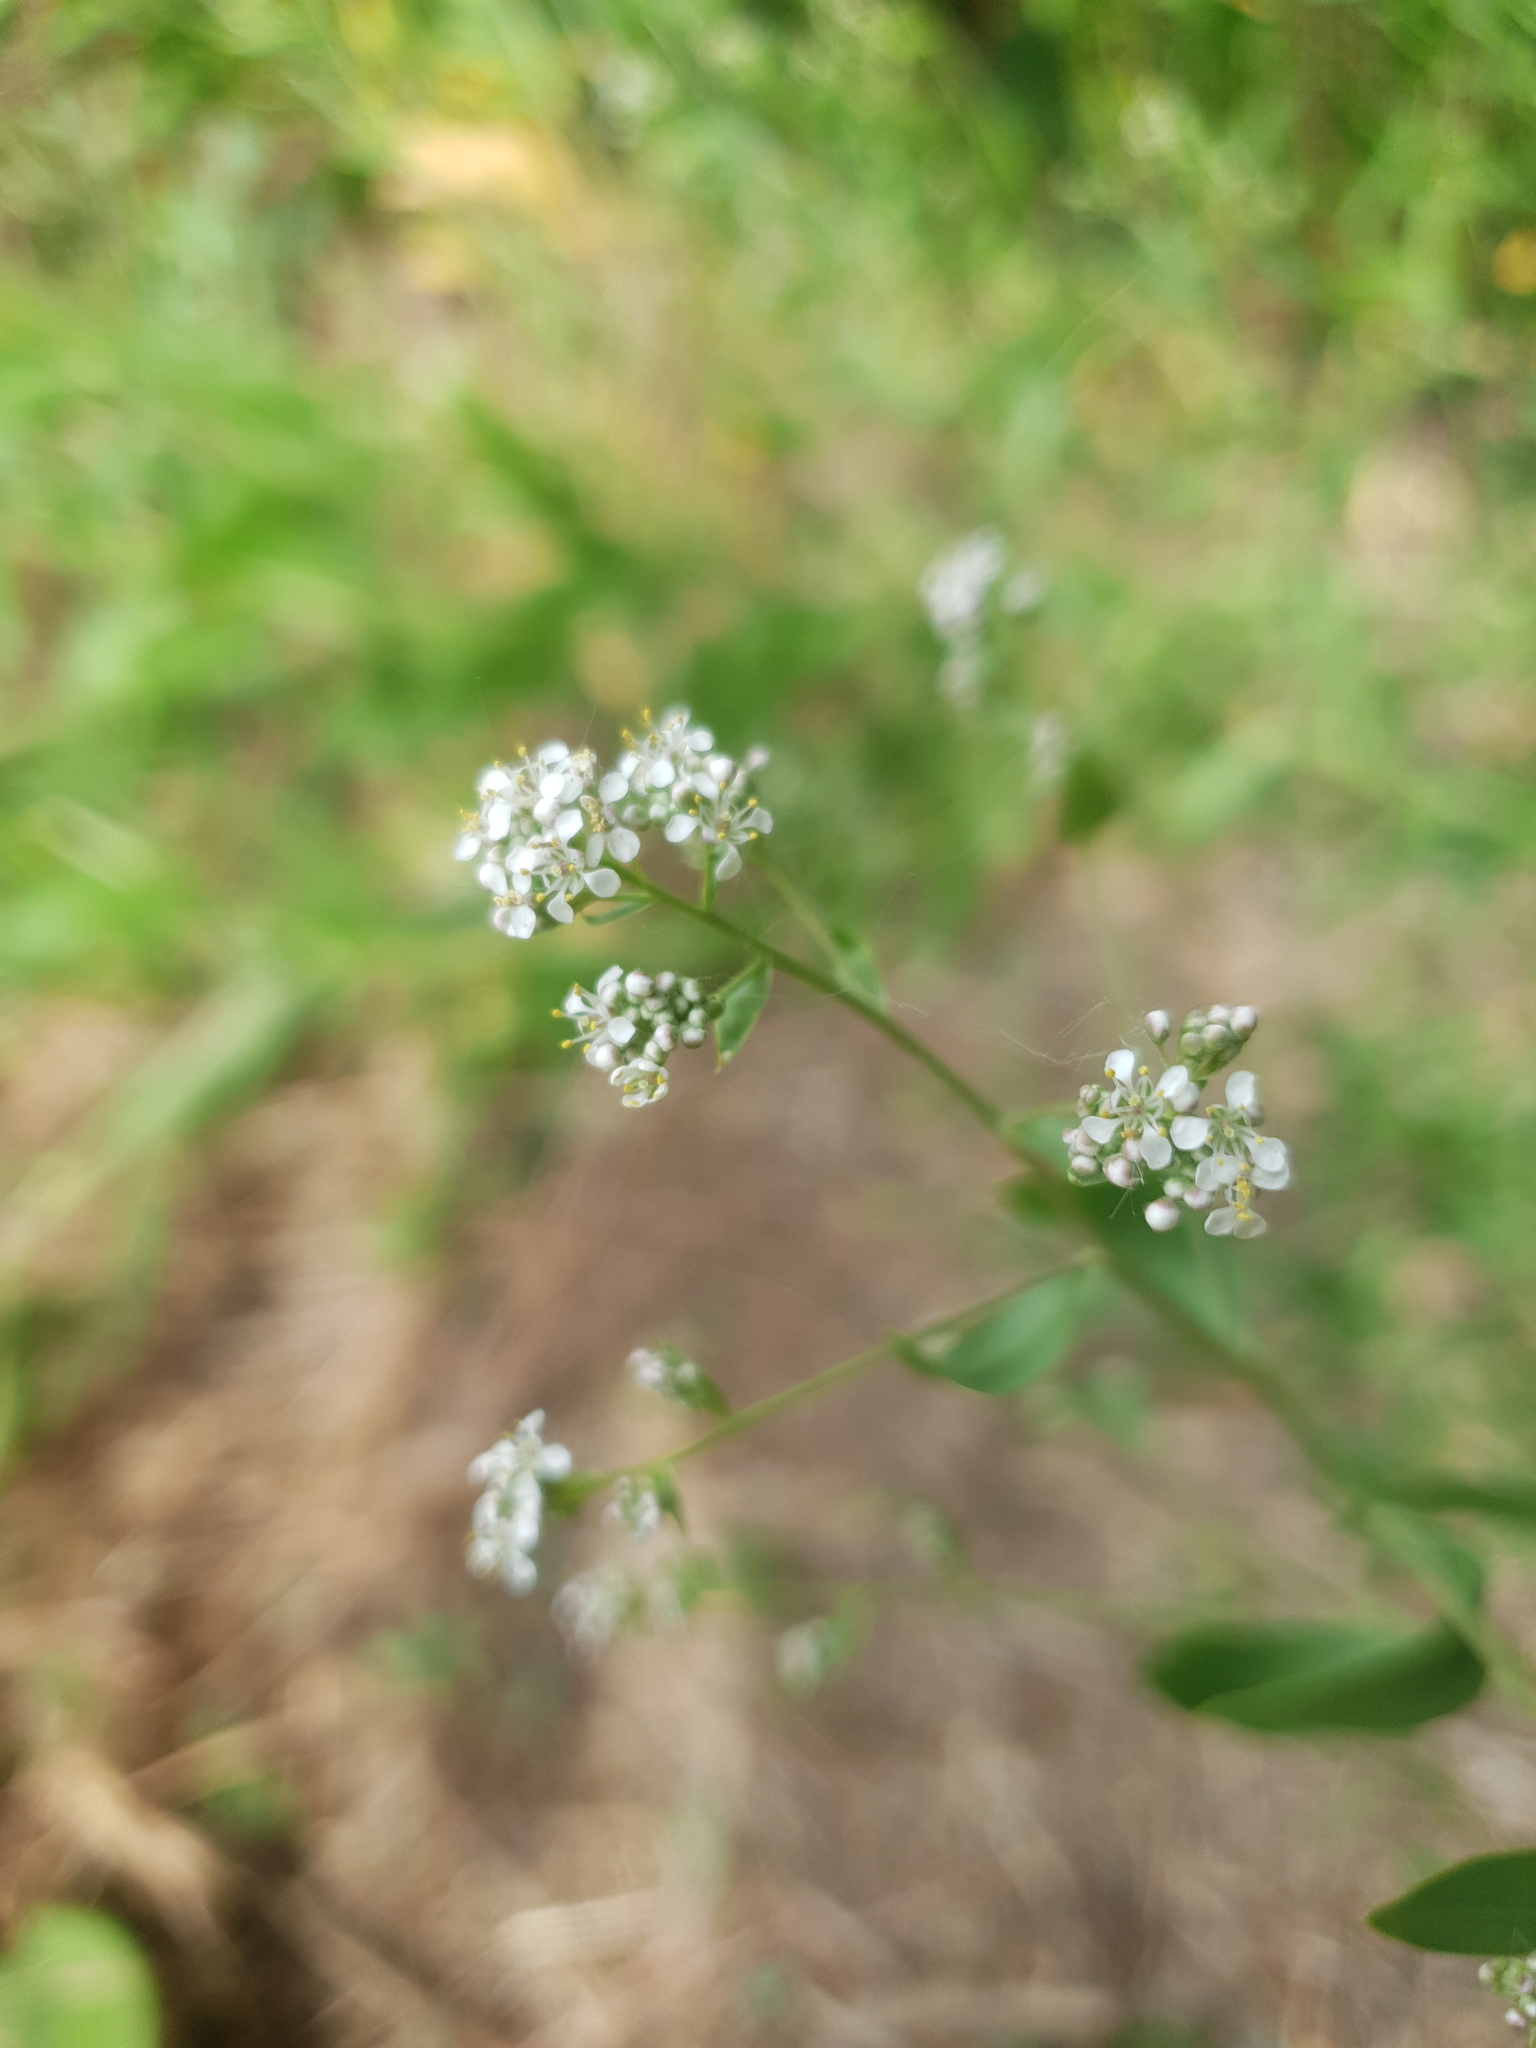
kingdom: Plantae
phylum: Tracheophyta
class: Magnoliopsida
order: Brassicales
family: Brassicaceae
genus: Lepidium
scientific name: Lepidium latifolium
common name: Dittander
